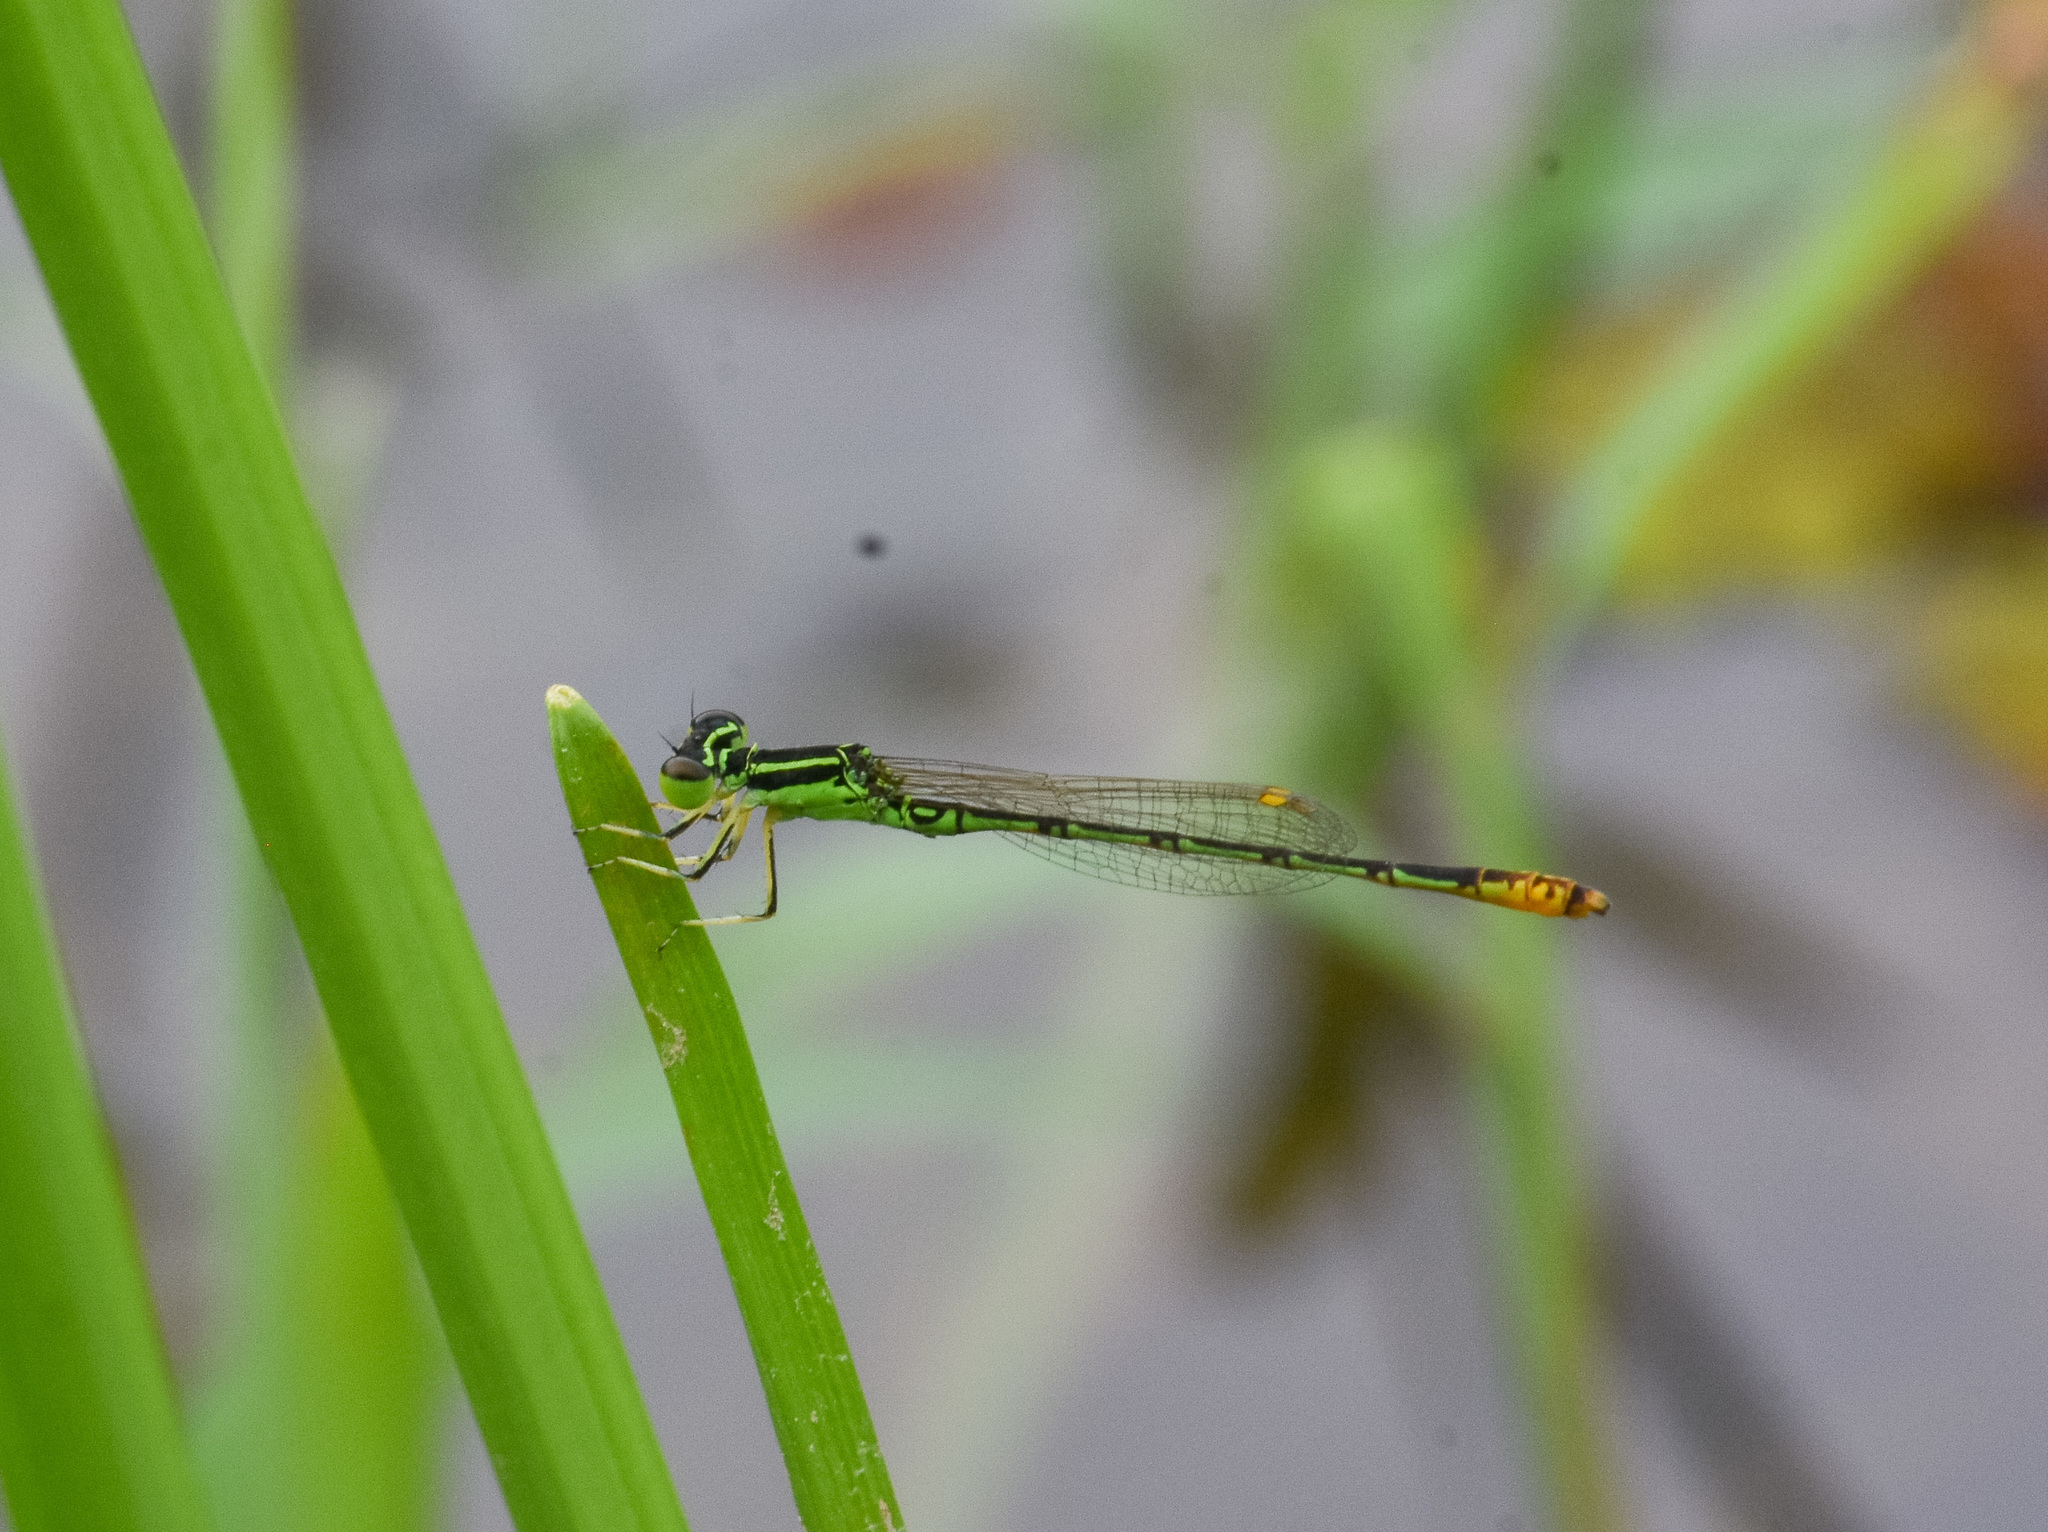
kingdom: Animalia
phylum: Arthropoda
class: Insecta
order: Odonata
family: Coenagrionidae
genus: Agriocnemis
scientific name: Agriocnemis kalinga
